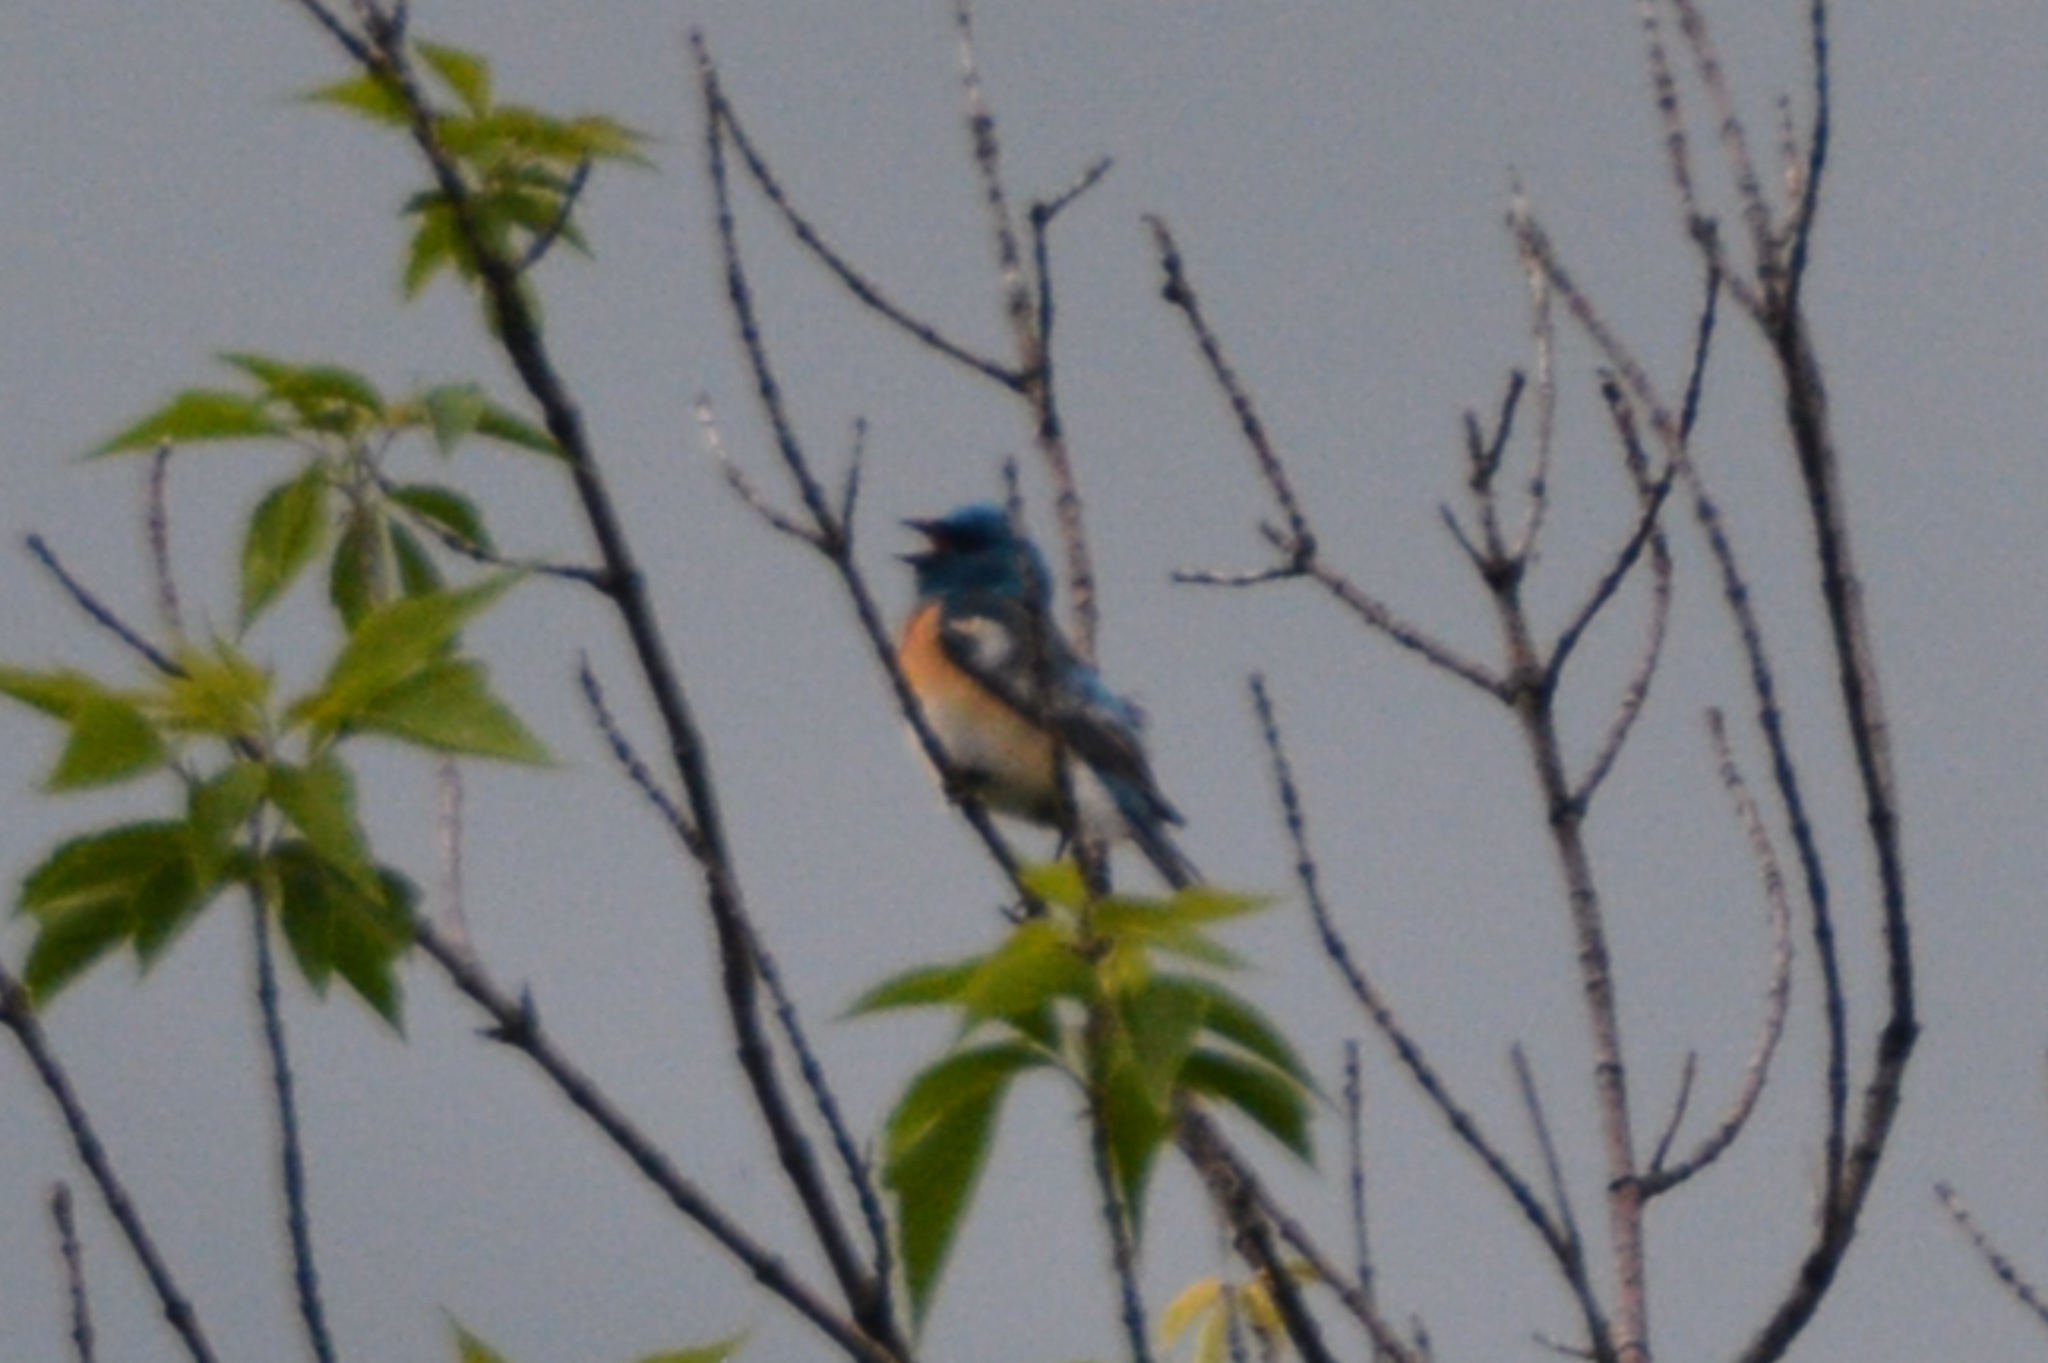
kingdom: Animalia
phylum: Chordata
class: Aves
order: Passeriformes
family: Cardinalidae
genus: Passerina
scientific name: Passerina amoena
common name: Lazuli bunting
